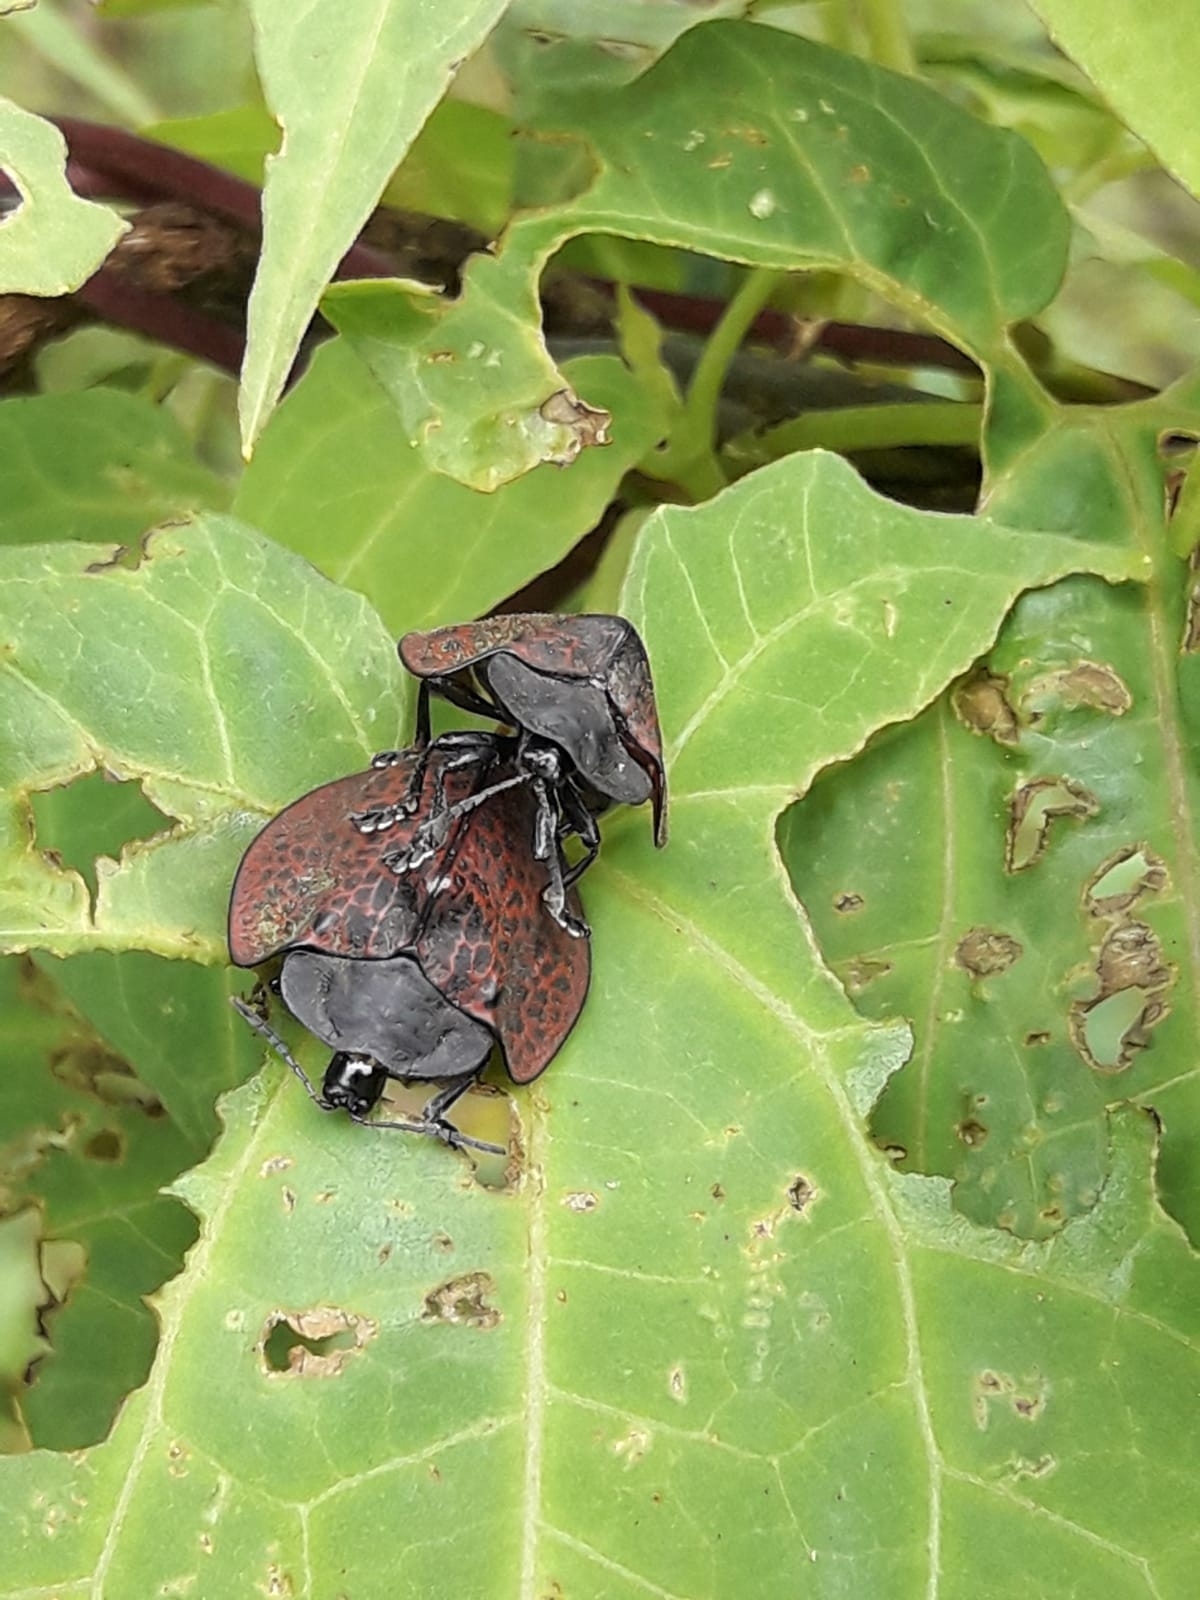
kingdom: Animalia
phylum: Arthropoda
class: Insecta
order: Coleoptera
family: Chrysomelidae
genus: Cyrtonota
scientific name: Cyrtonota textilis
